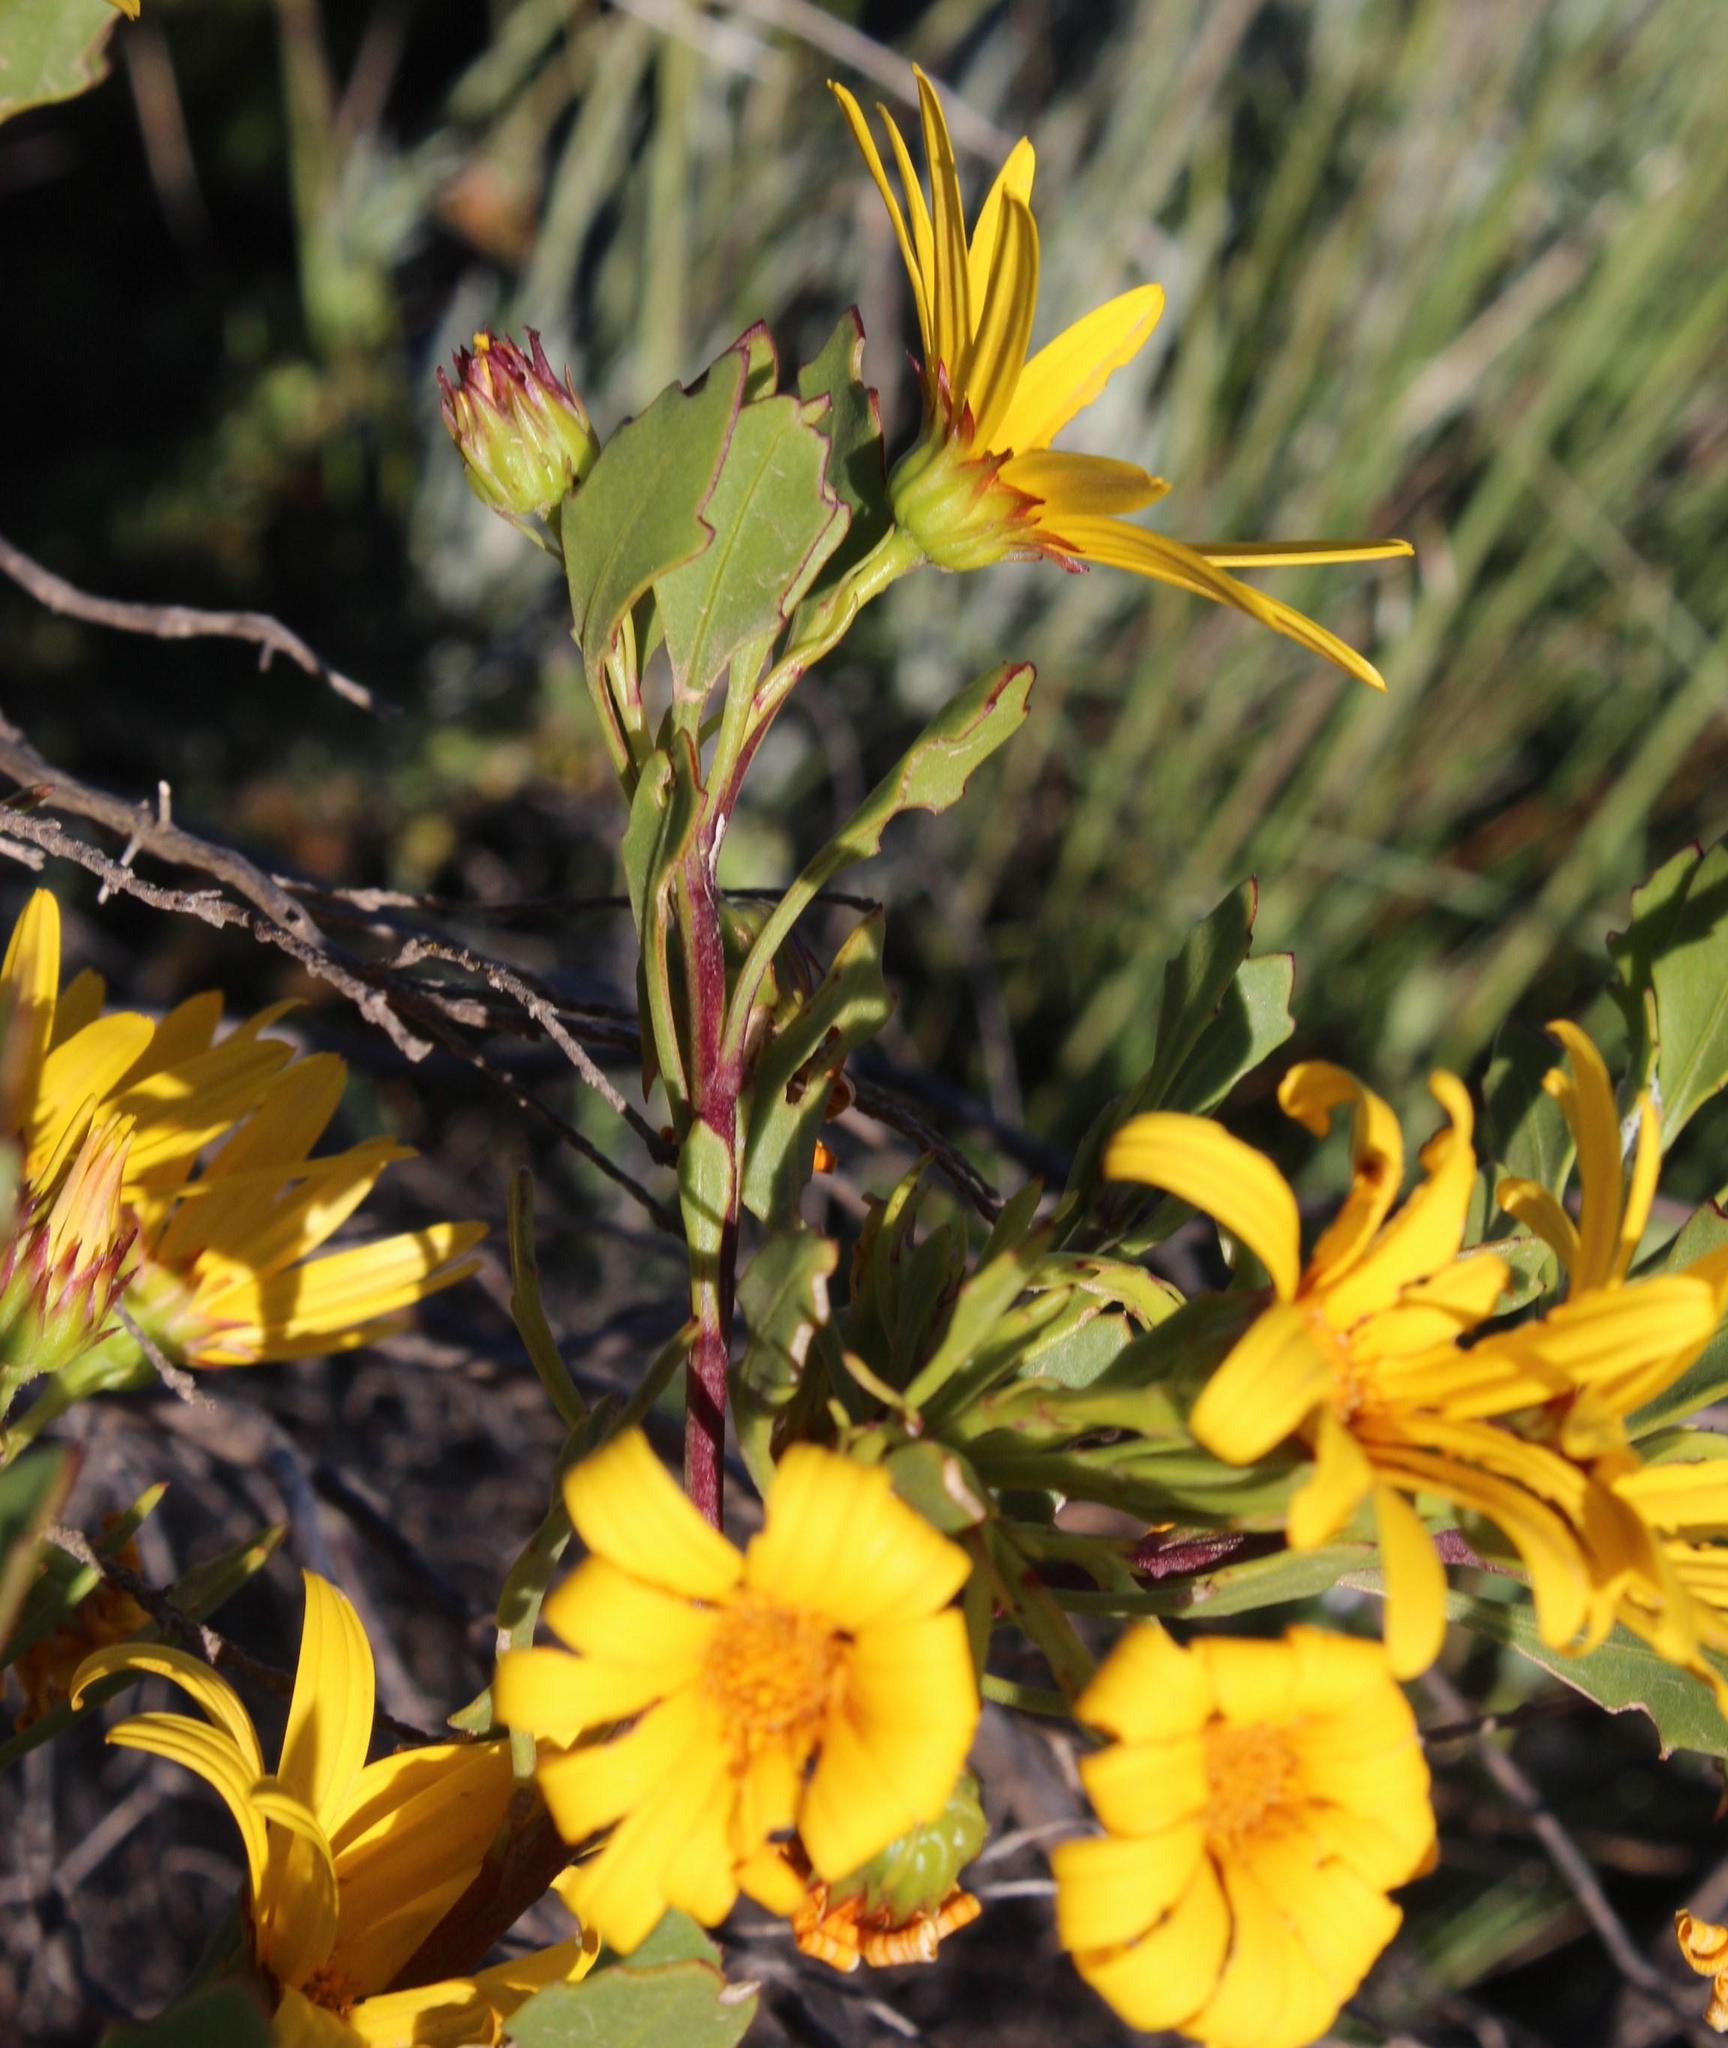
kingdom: Plantae
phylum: Tracheophyta
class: Magnoliopsida
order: Asterales
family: Asteraceae
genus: Osteospermum
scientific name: Osteospermum moniliferum
